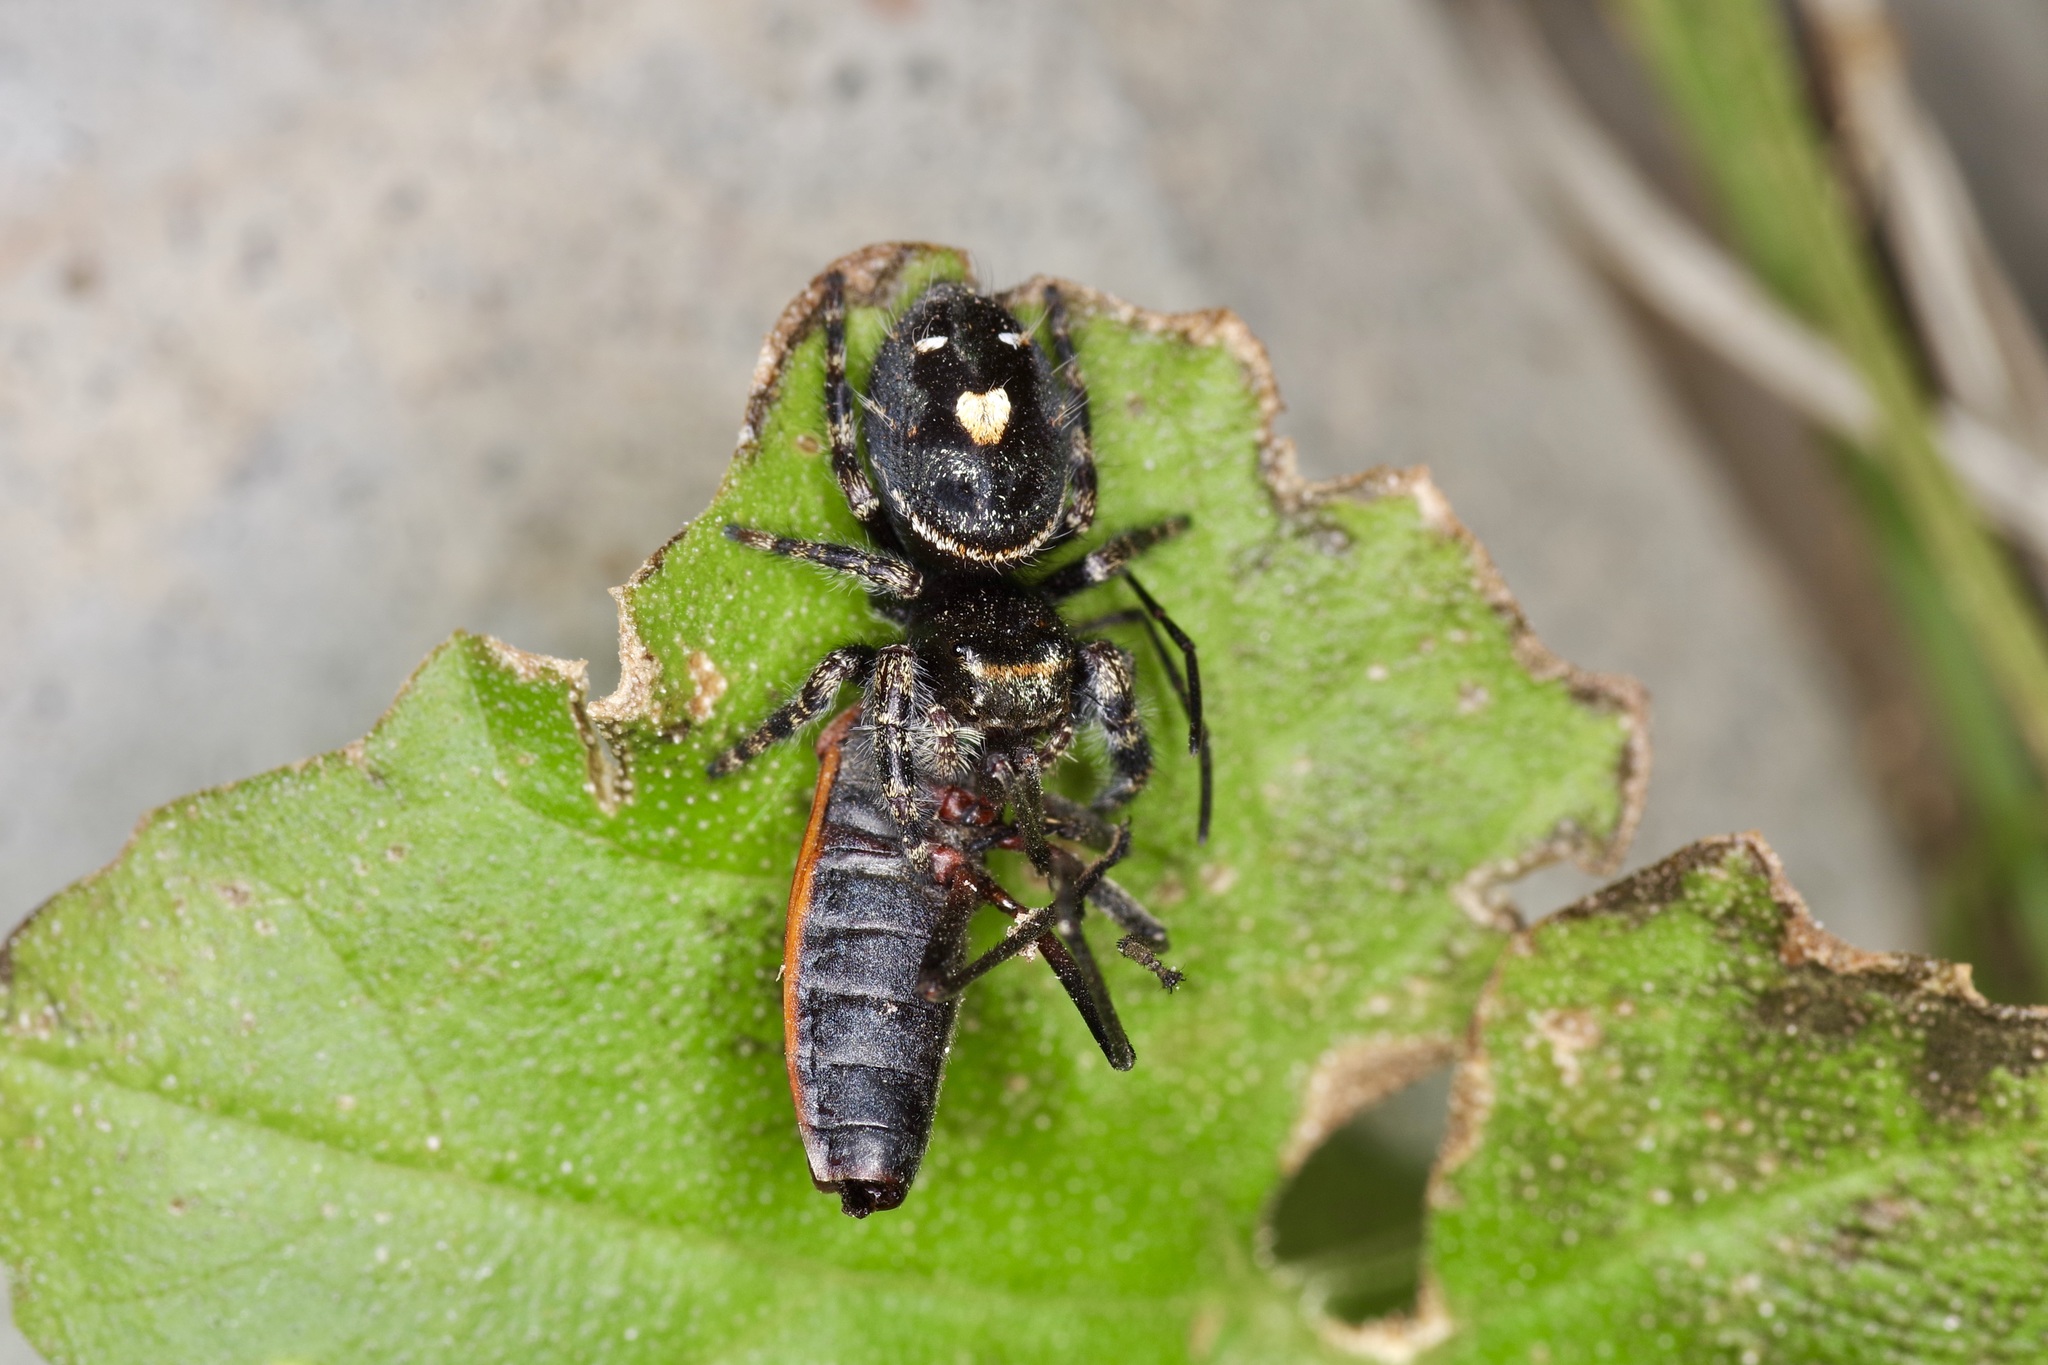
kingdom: Animalia
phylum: Arthropoda
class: Arachnida
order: Araneae
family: Salticidae
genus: Phidippus
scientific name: Phidippus audax
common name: Bold jumper
